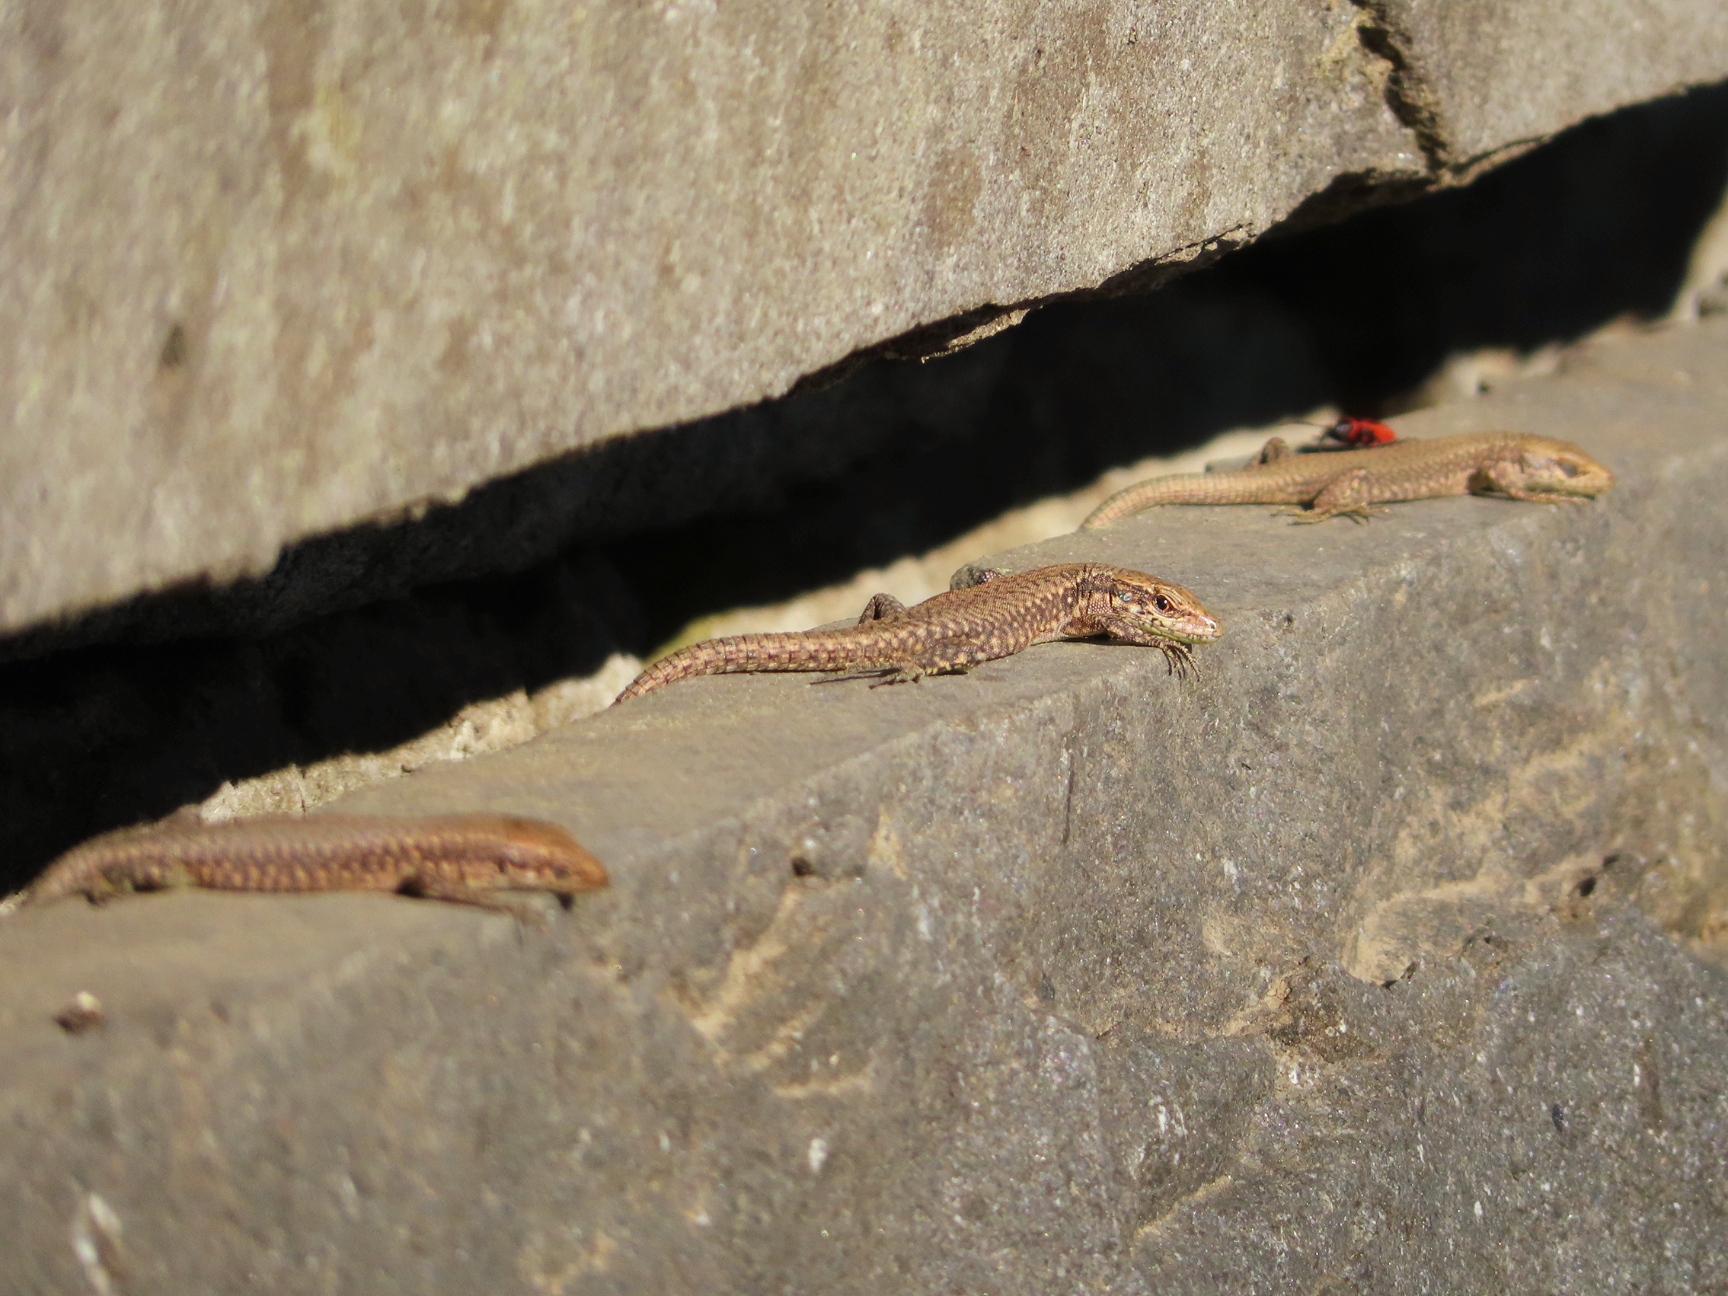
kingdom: Animalia
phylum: Chordata
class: Squamata
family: Lacertidae
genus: Darevskia
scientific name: Darevskia mixta
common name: Ajarian lizard
